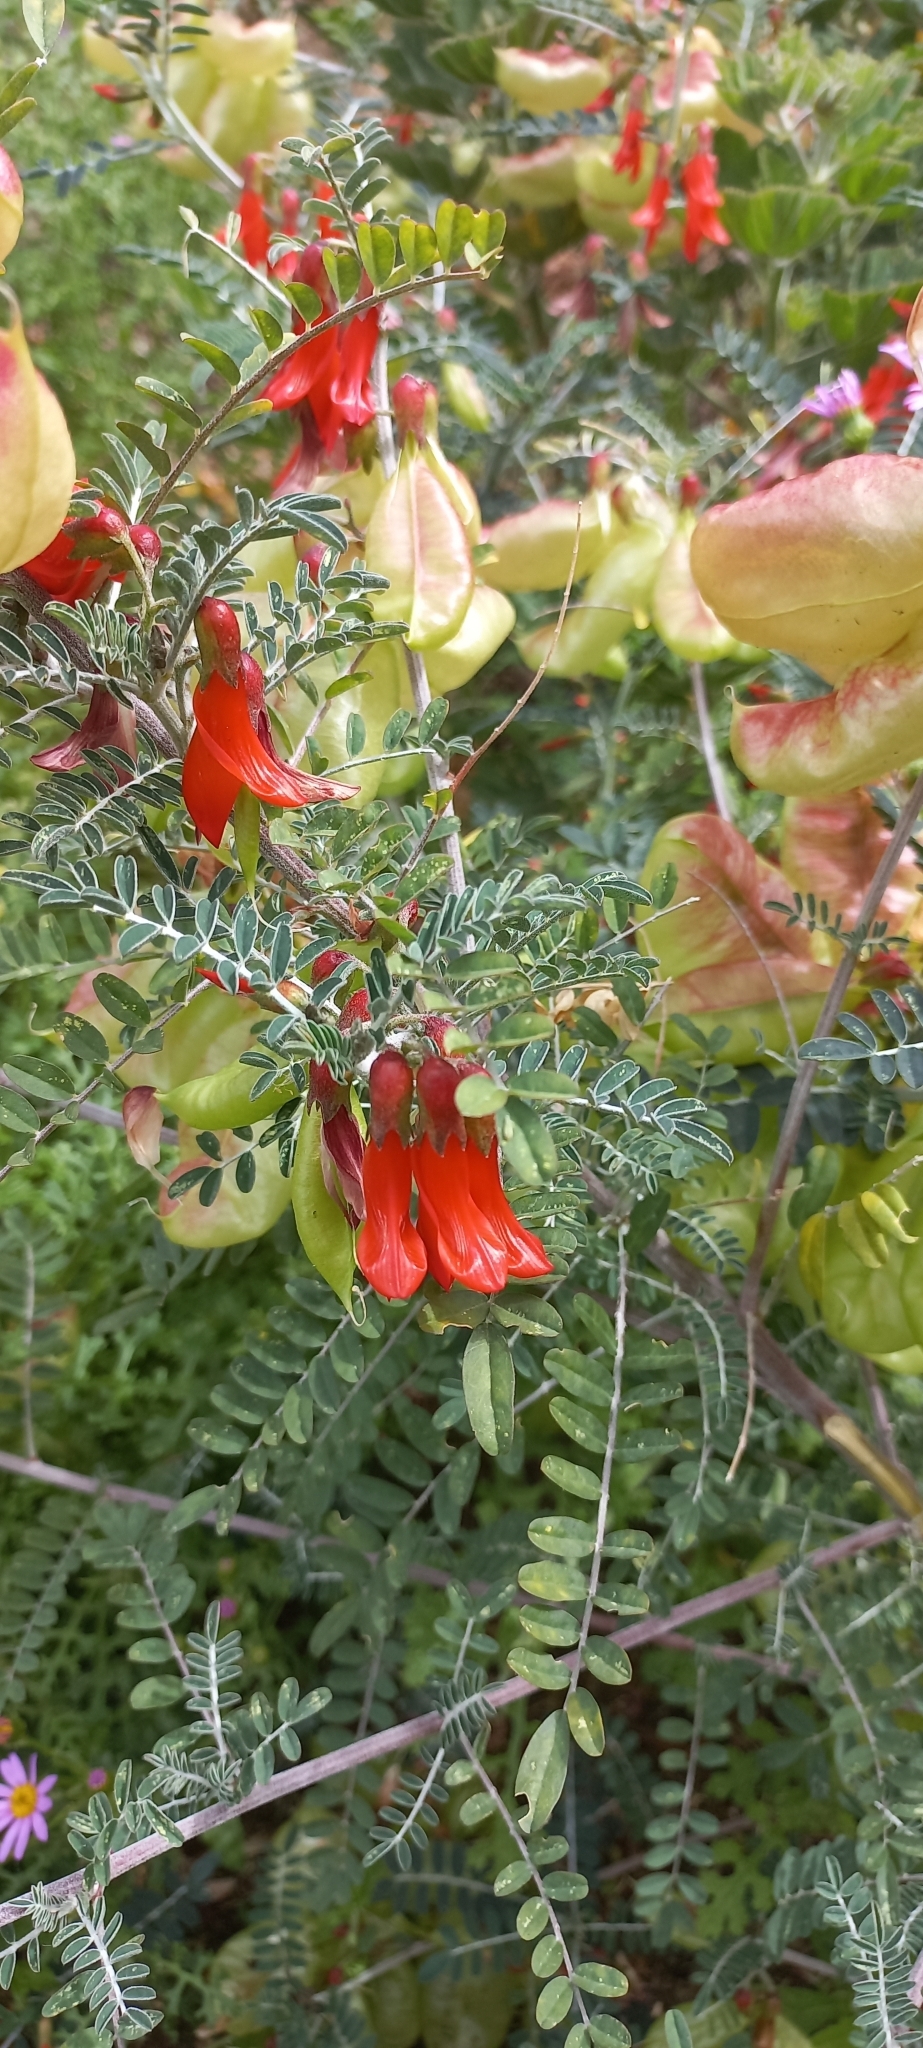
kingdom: Plantae
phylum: Tracheophyta
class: Magnoliopsida
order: Fabales
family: Fabaceae
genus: Lessertia
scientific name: Lessertia frutescens
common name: Balloon-pea
